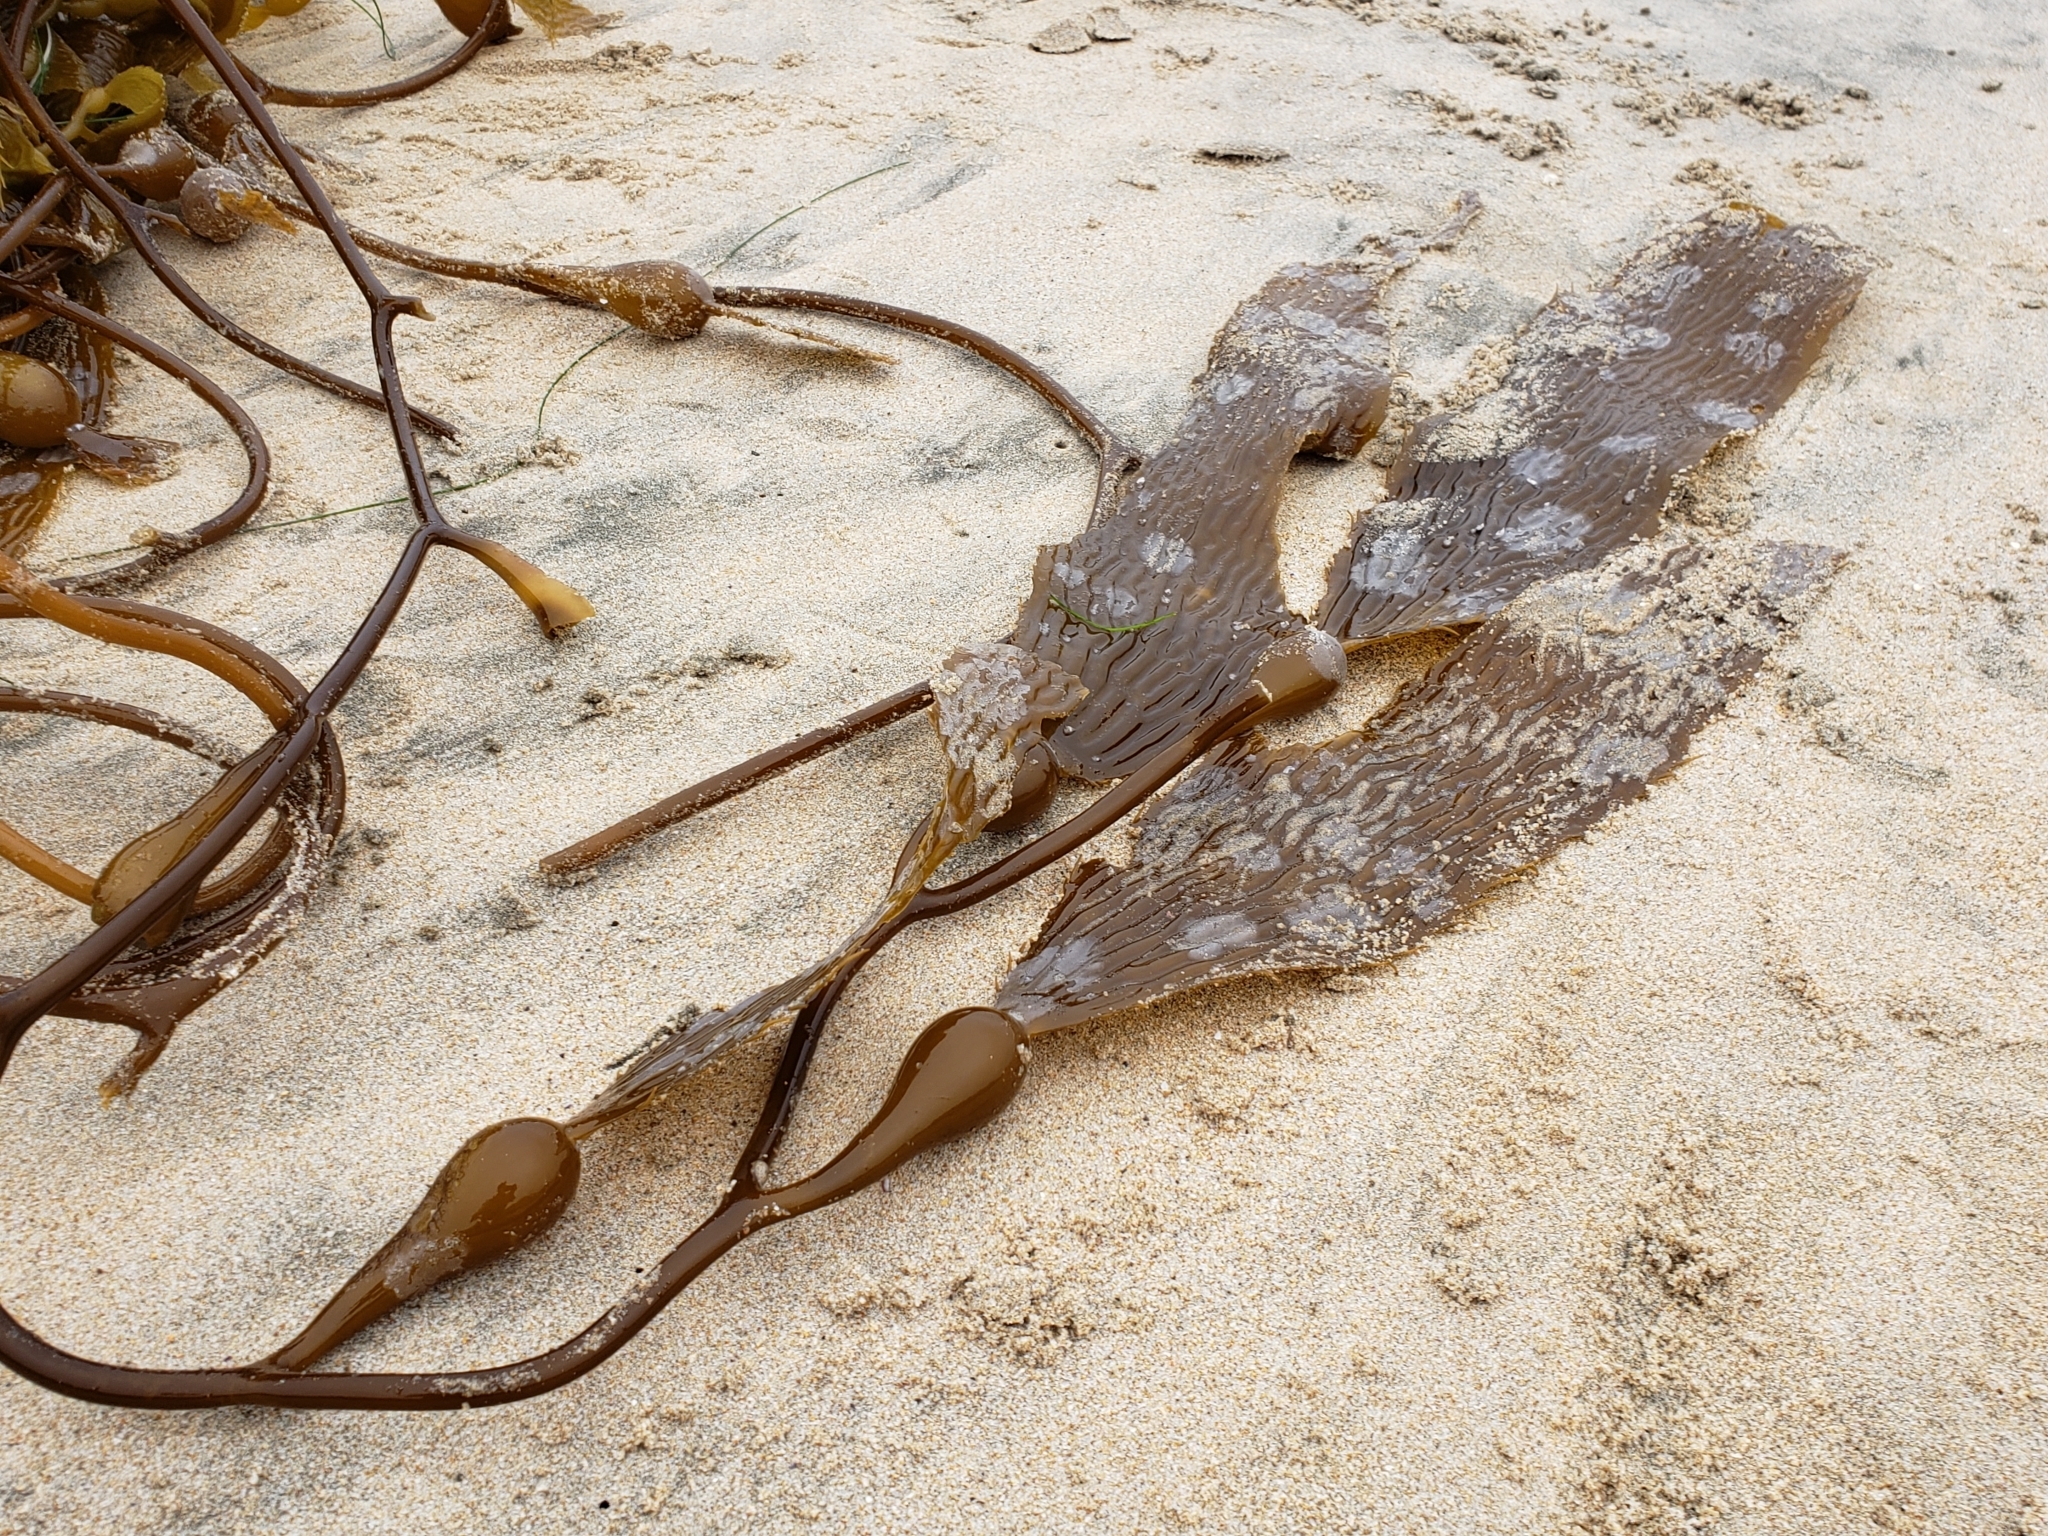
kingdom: Chromista
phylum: Ochrophyta
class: Phaeophyceae
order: Laminariales
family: Laminariaceae
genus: Macrocystis
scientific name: Macrocystis pyrifera
